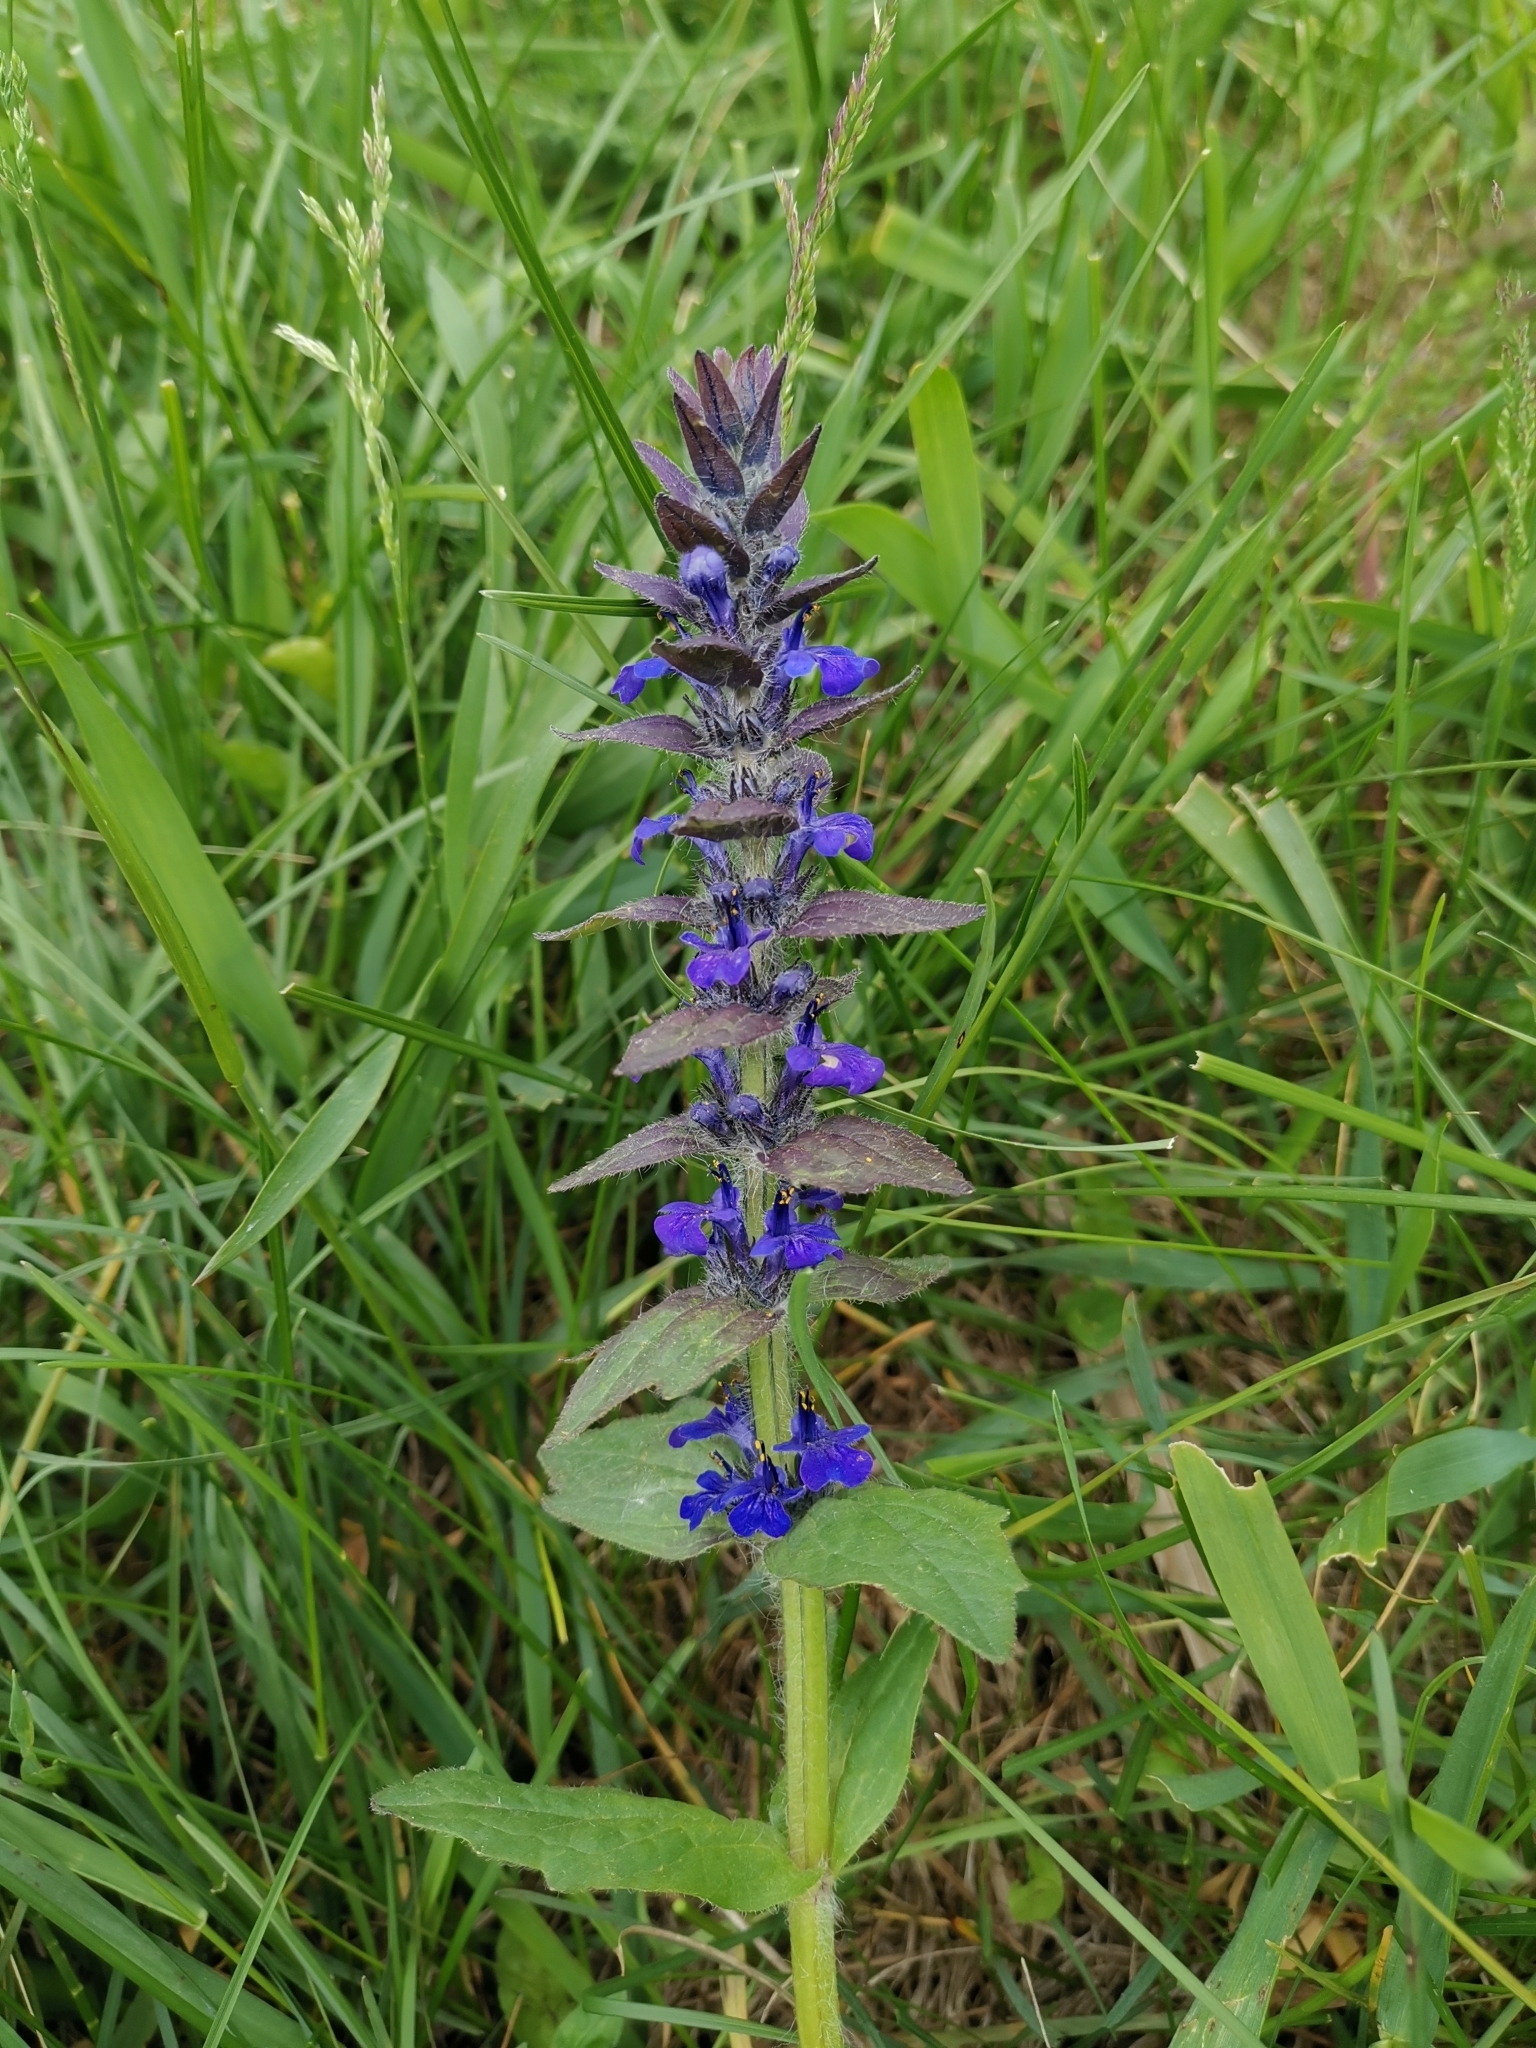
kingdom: Plantae
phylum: Tracheophyta
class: Magnoliopsida
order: Lamiales
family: Lamiaceae
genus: Ajuga
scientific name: Ajuga genevensis
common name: Blue bugle
